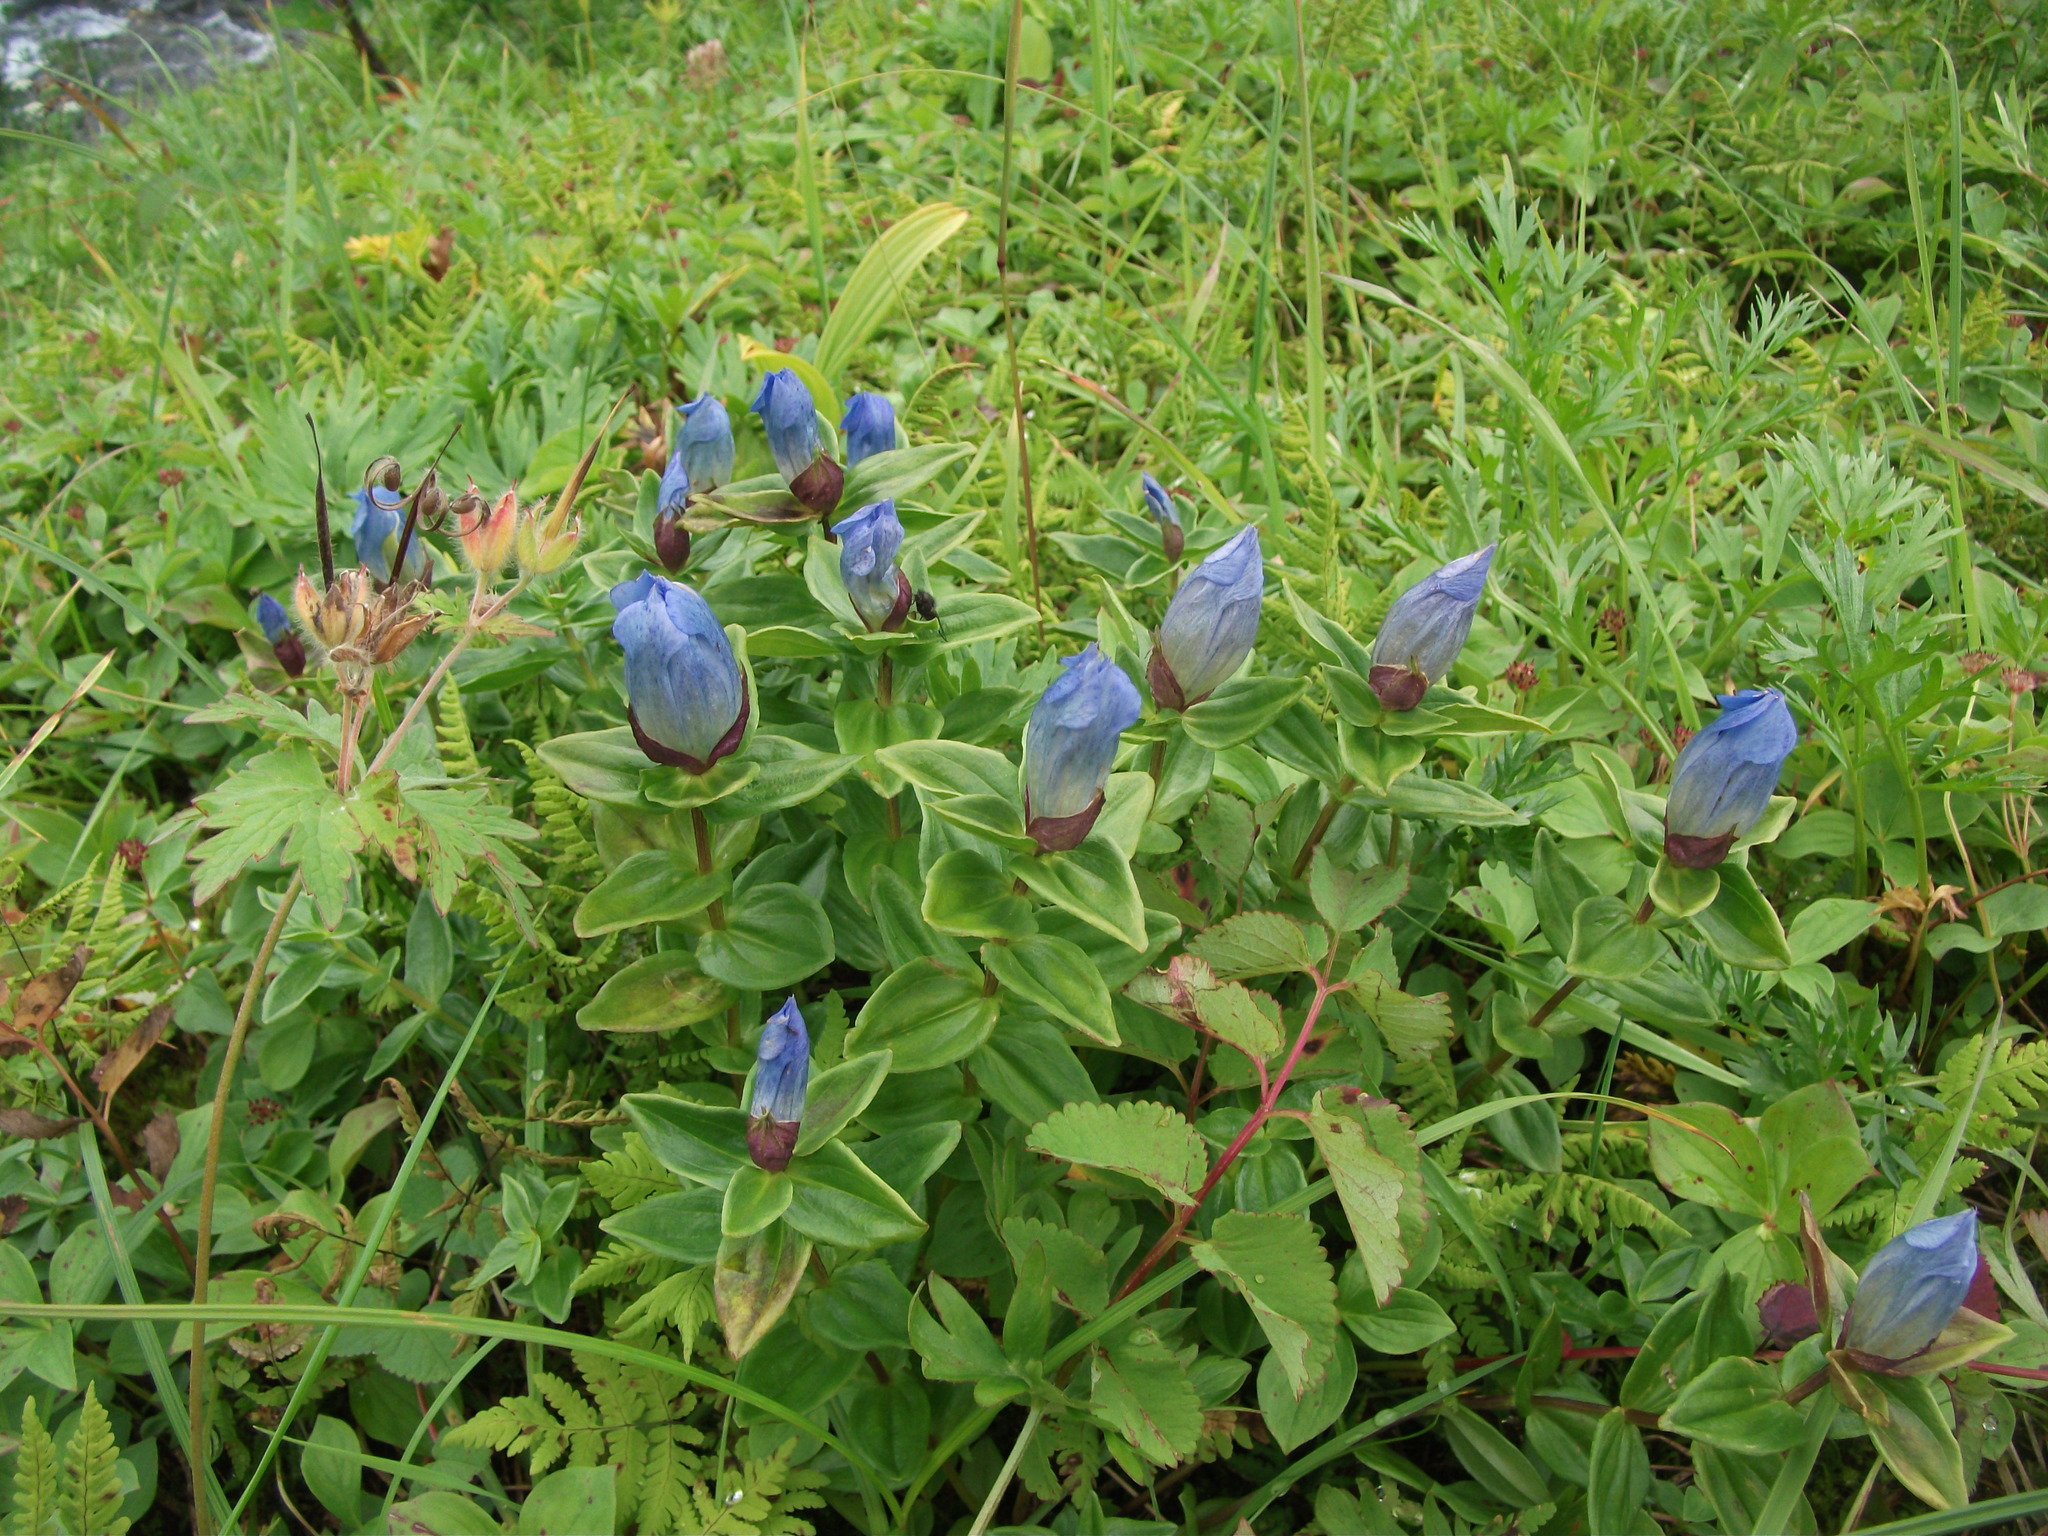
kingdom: Plantae
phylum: Tracheophyta
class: Magnoliopsida
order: Gentianales
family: Gentianaceae
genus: Gentiana
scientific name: Gentiana platypetala
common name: Broad-petalled gentian
